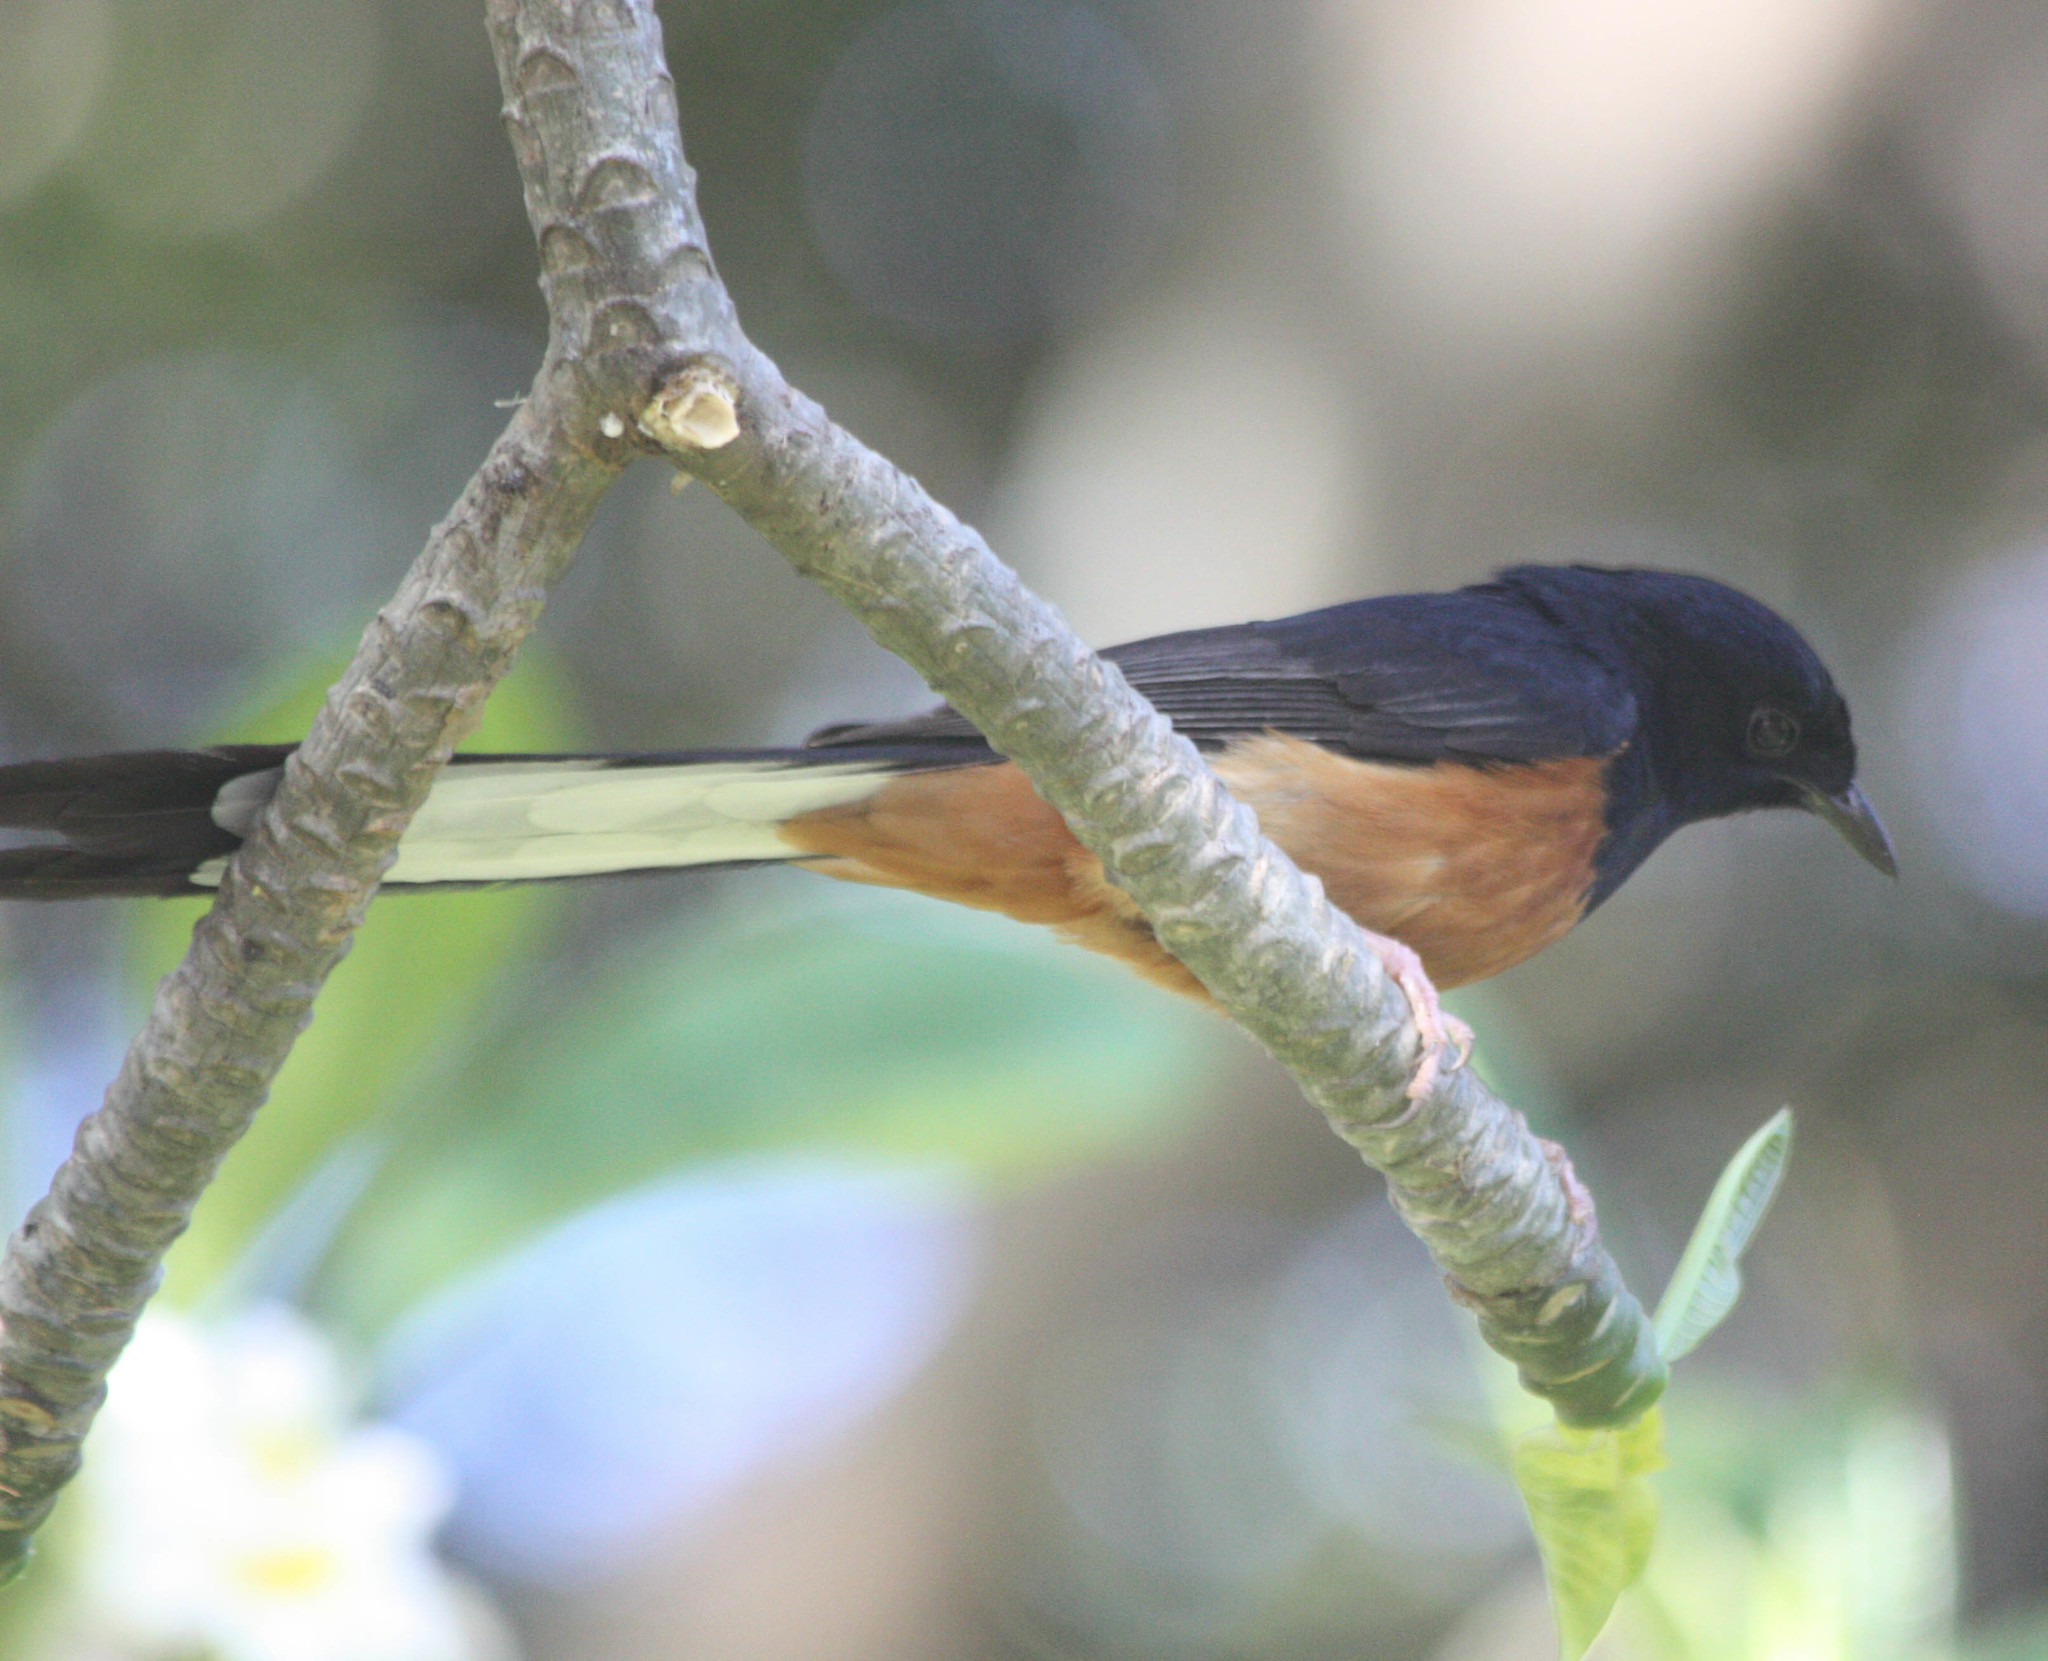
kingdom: Animalia
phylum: Chordata
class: Aves
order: Passeriformes
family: Muscicapidae
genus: Copsychus
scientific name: Copsychus malabaricus
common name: White-rumped shama
